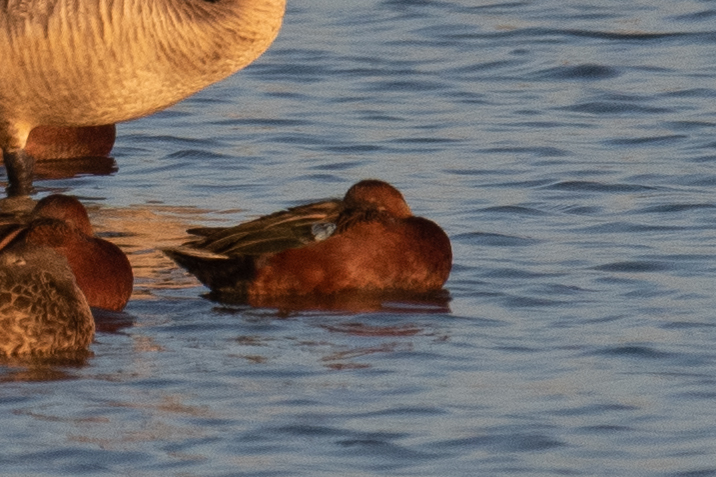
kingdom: Animalia
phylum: Chordata
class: Aves
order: Anseriformes
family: Anatidae
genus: Spatula
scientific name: Spatula cyanoptera
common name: Cinnamon teal
